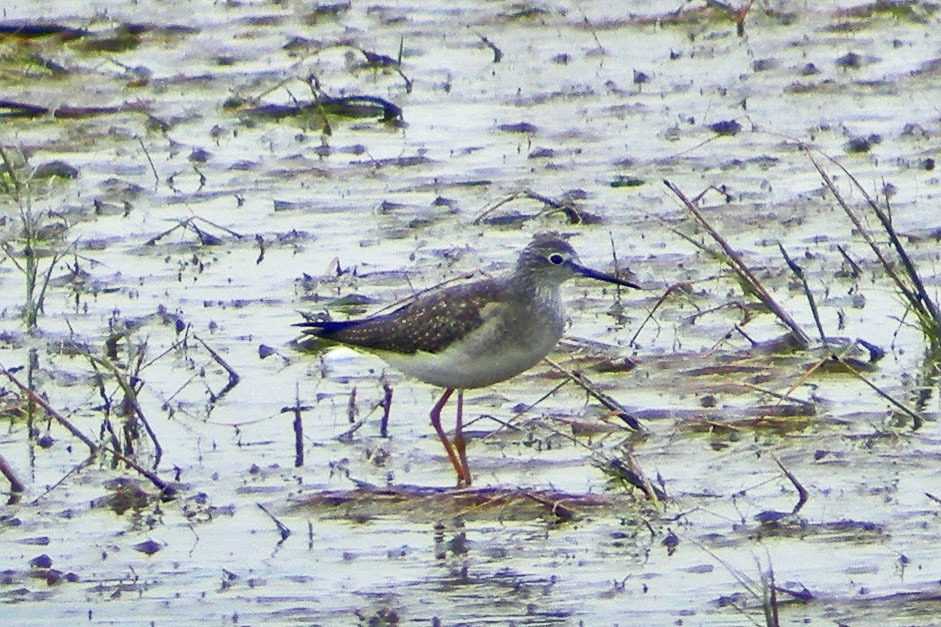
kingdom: Animalia
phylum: Chordata
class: Aves
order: Charadriiformes
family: Scolopacidae
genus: Tringa
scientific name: Tringa flavipes
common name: Lesser yellowlegs
